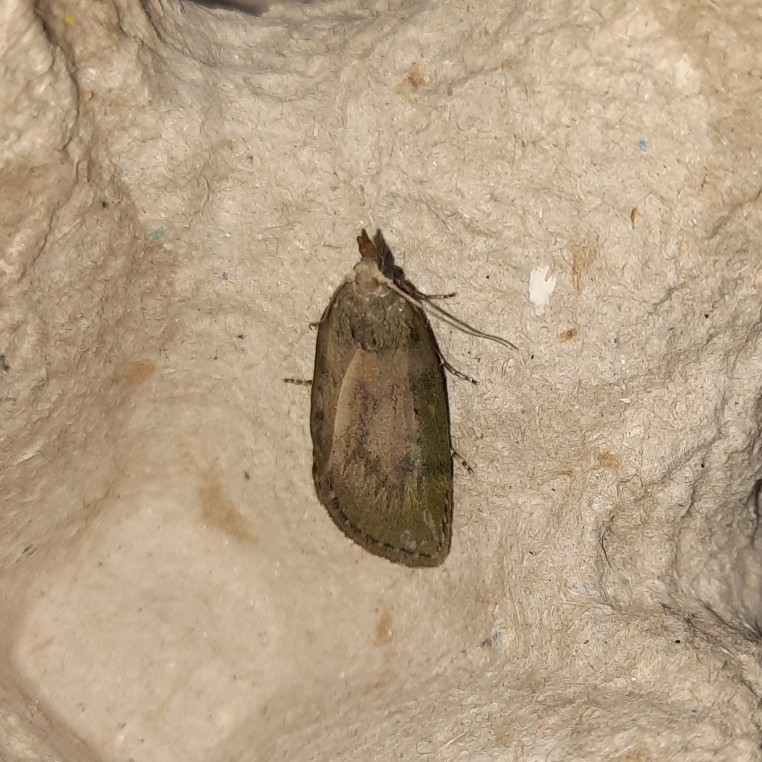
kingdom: Animalia
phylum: Arthropoda
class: Insecta
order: Lepidoptera
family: Pyralidae
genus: Aphomia
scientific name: Aphomia sociella
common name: Bee moth
